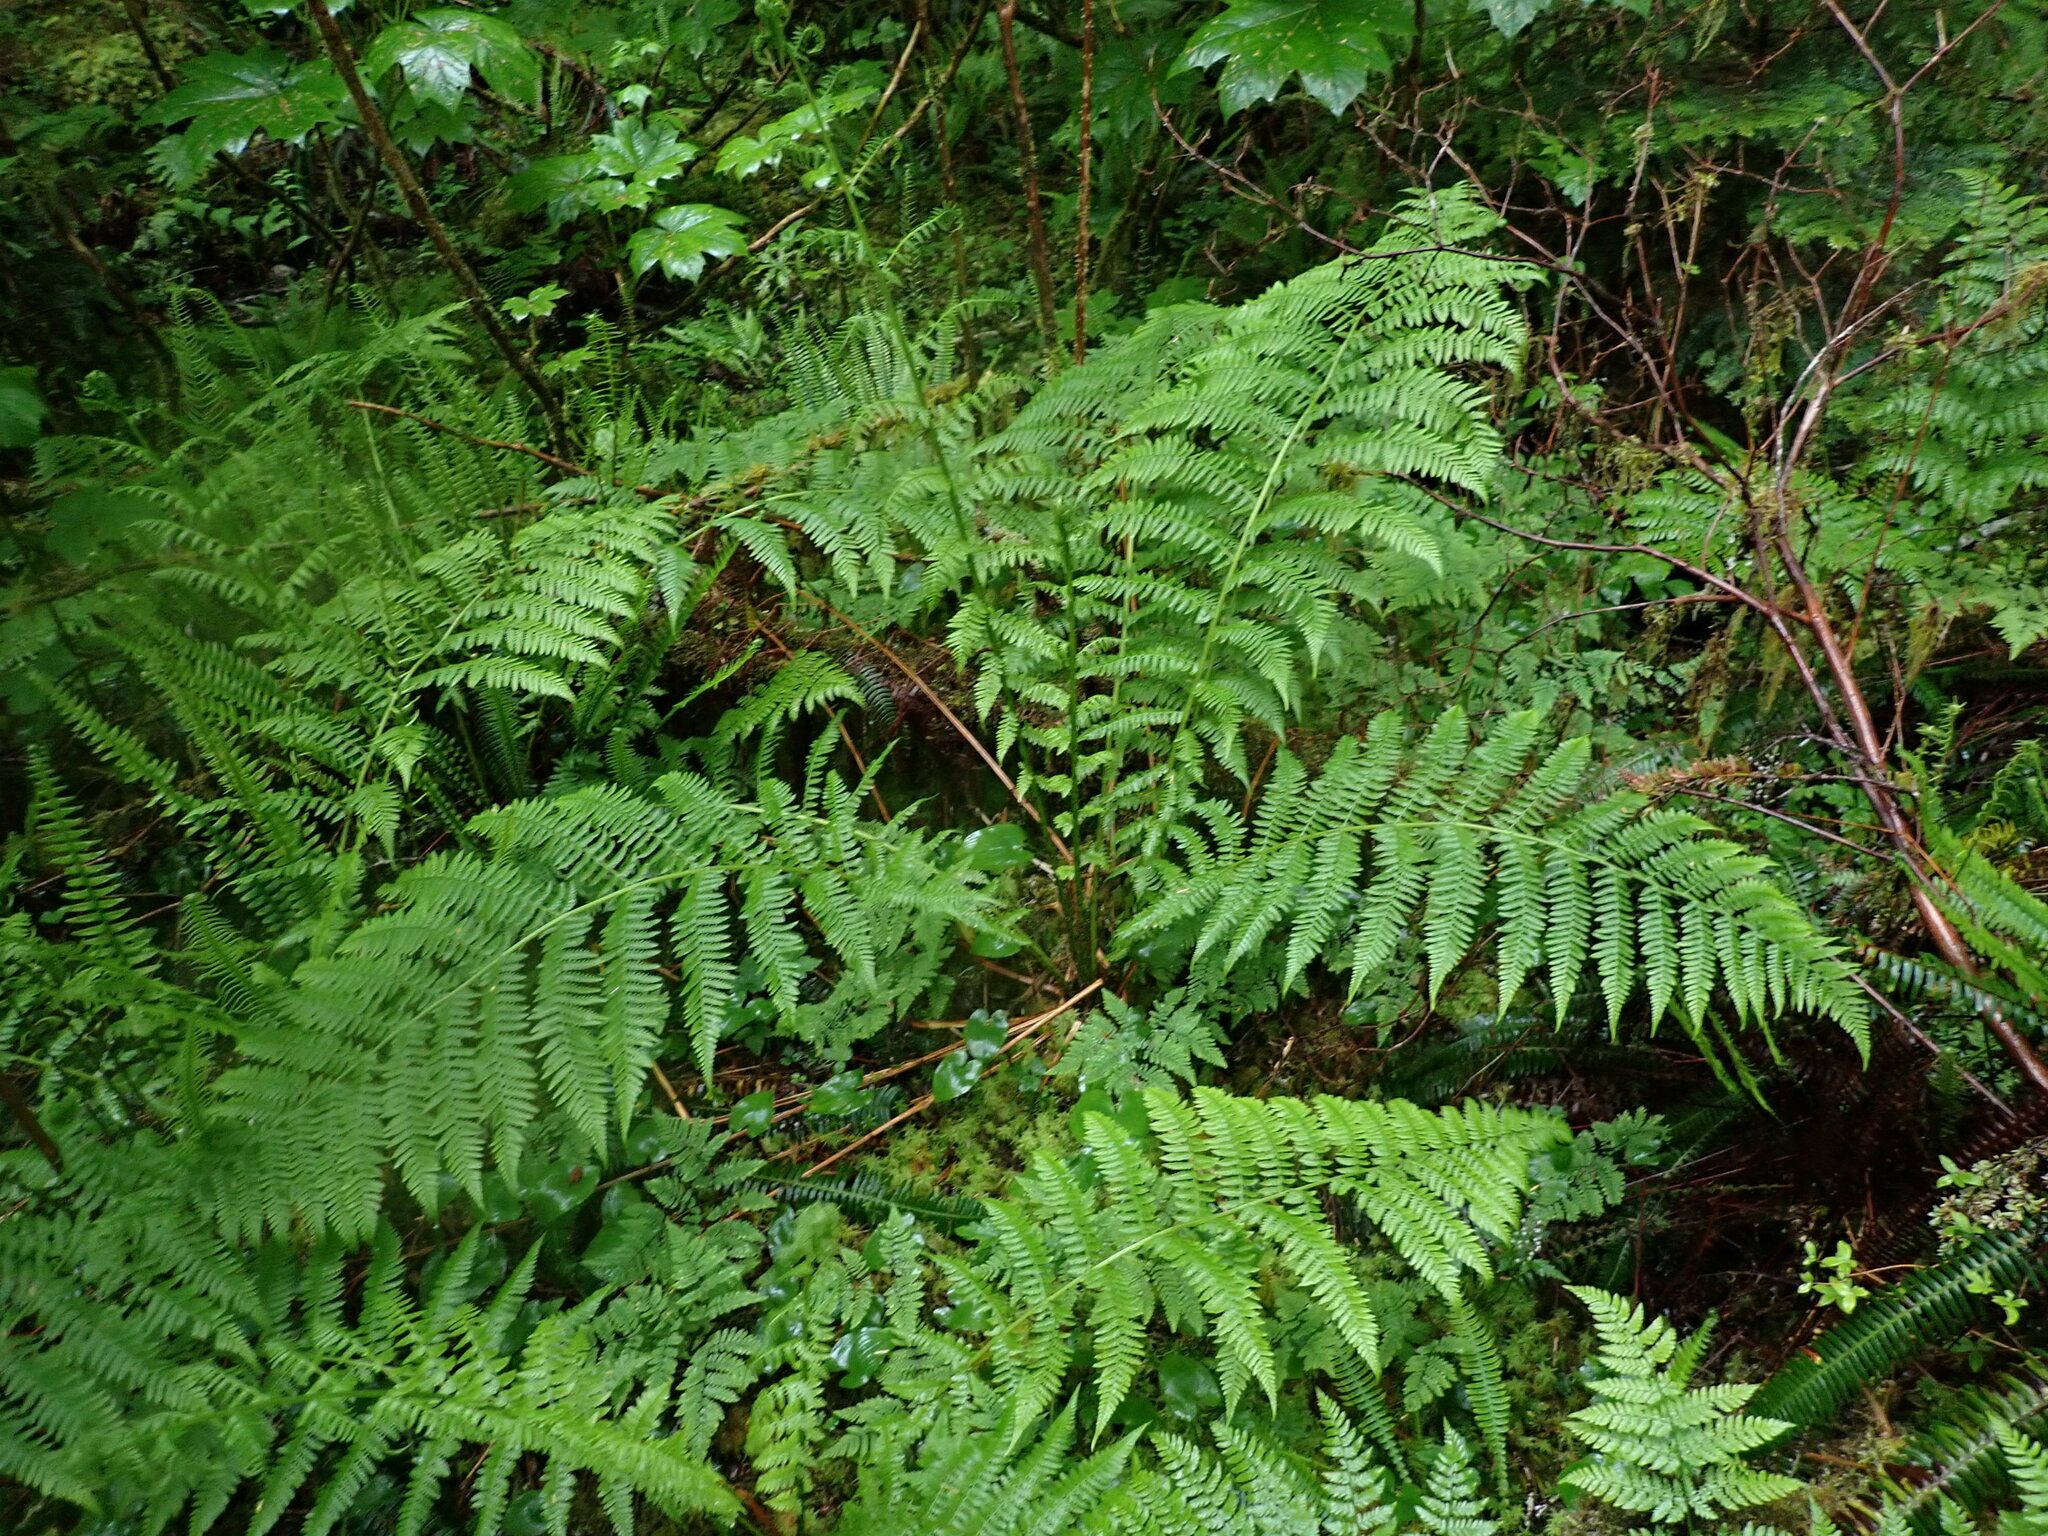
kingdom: Plantae
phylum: Tracheophyta
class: Polypodiopsida
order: Polypodiales
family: Athyriaceae
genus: Athyrium
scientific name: Athyrium filix-femina
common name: Lady fern
